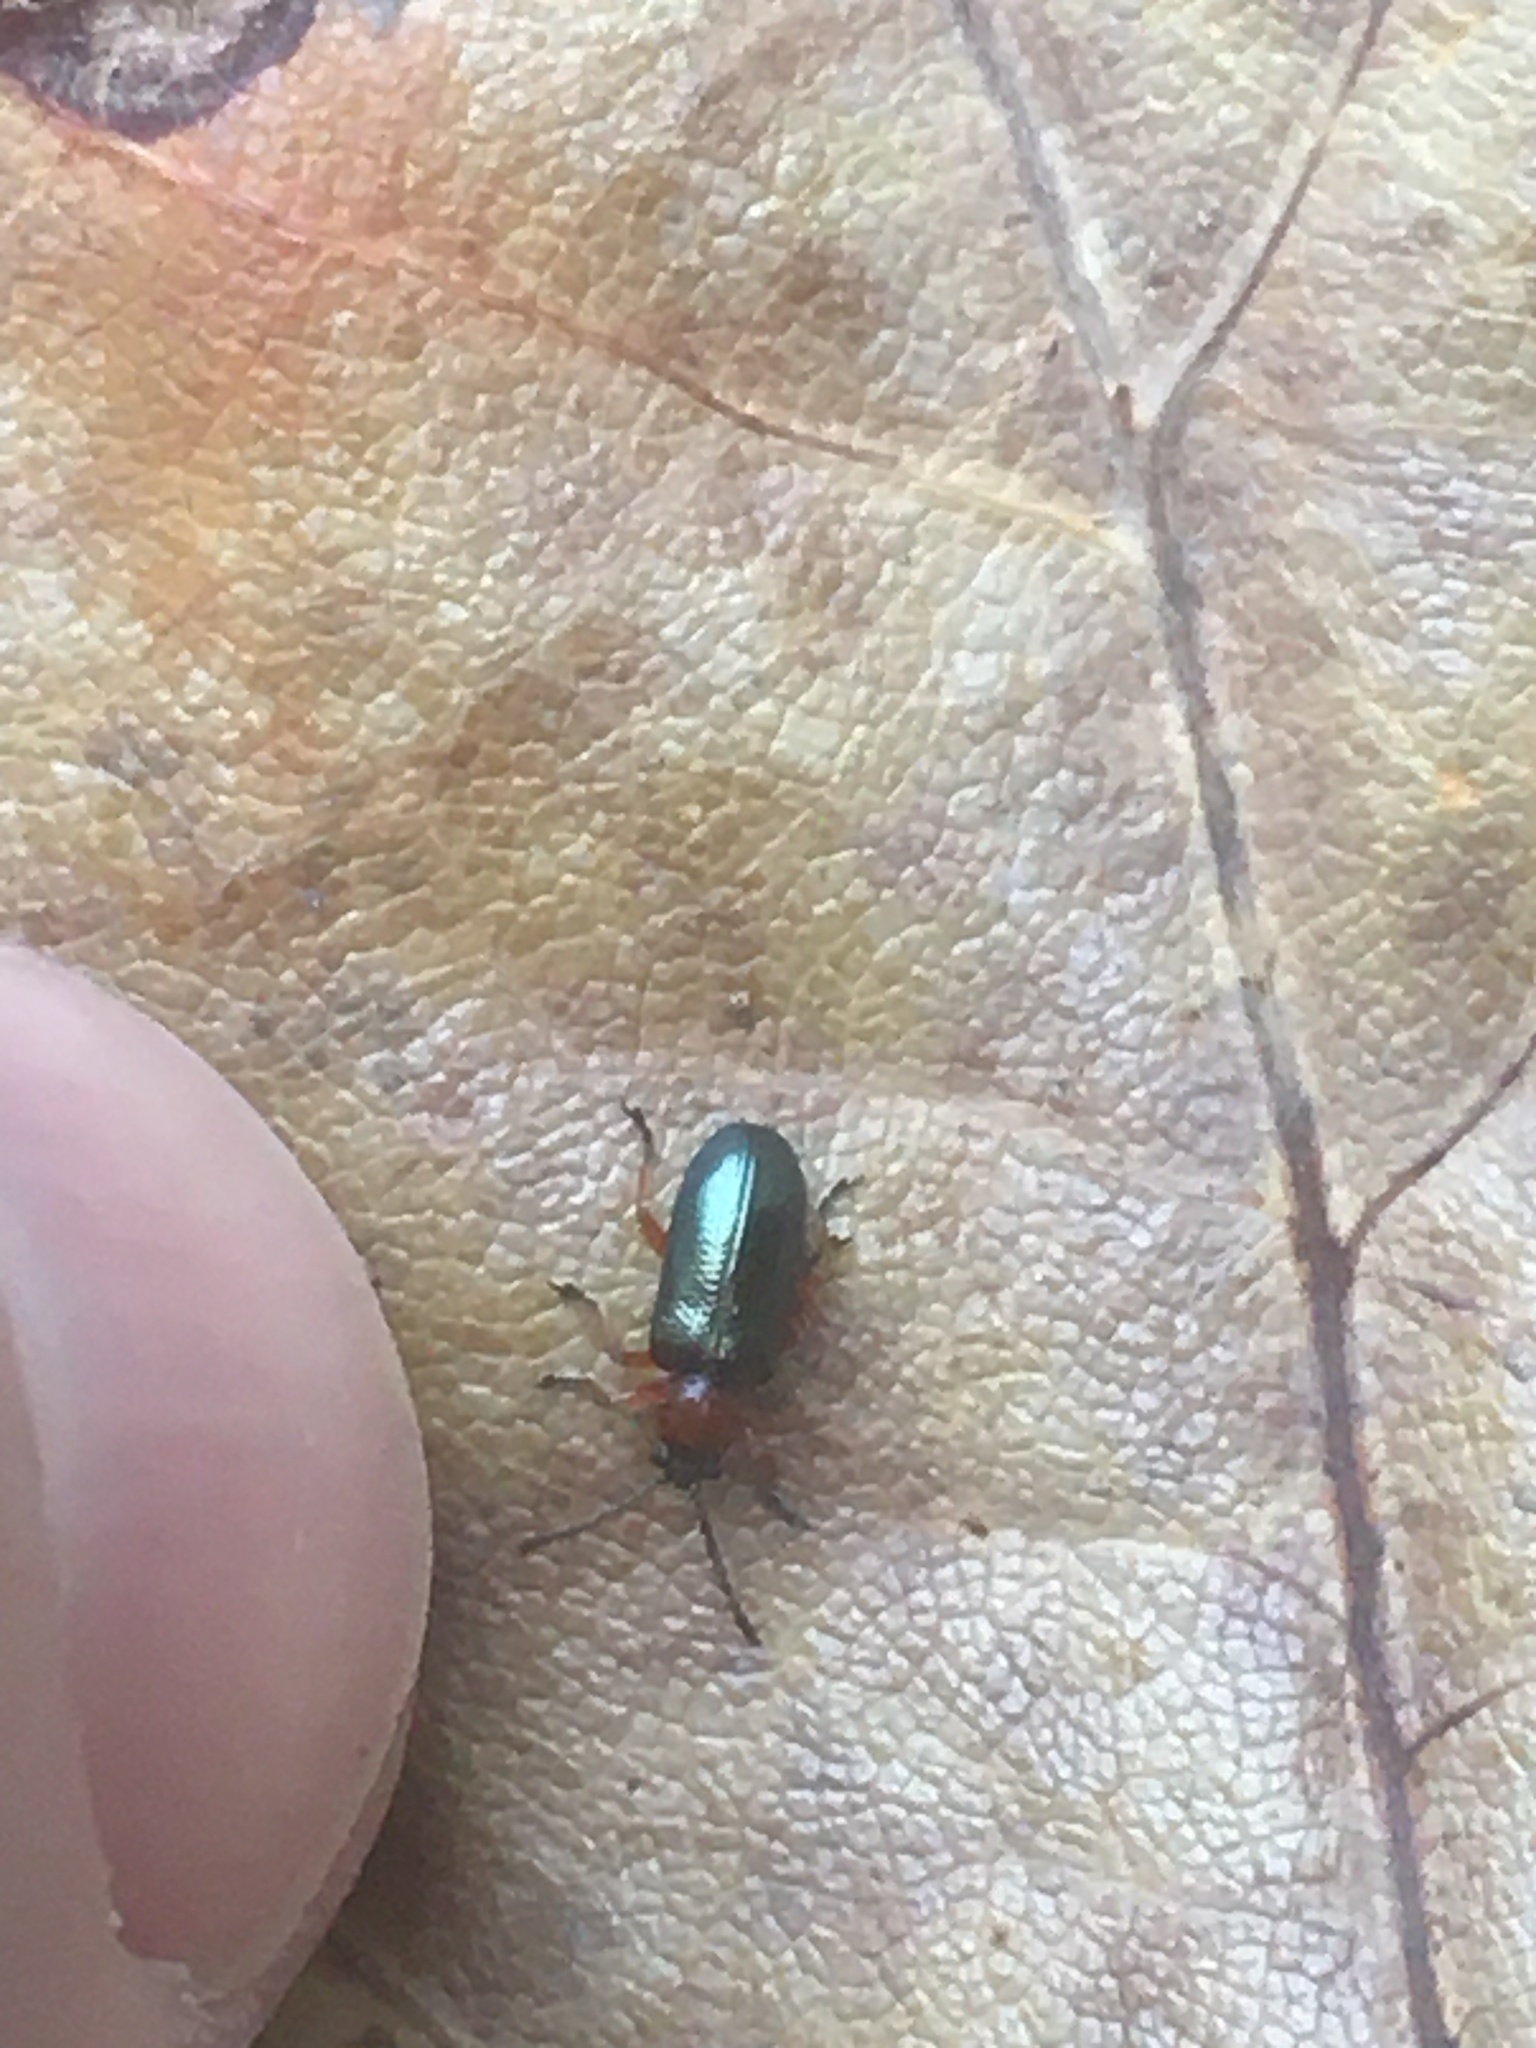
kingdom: Animalia
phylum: Arthropoda
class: Insecta
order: Coleoptera
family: Chrysomelidae
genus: Oulema
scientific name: Oulema
